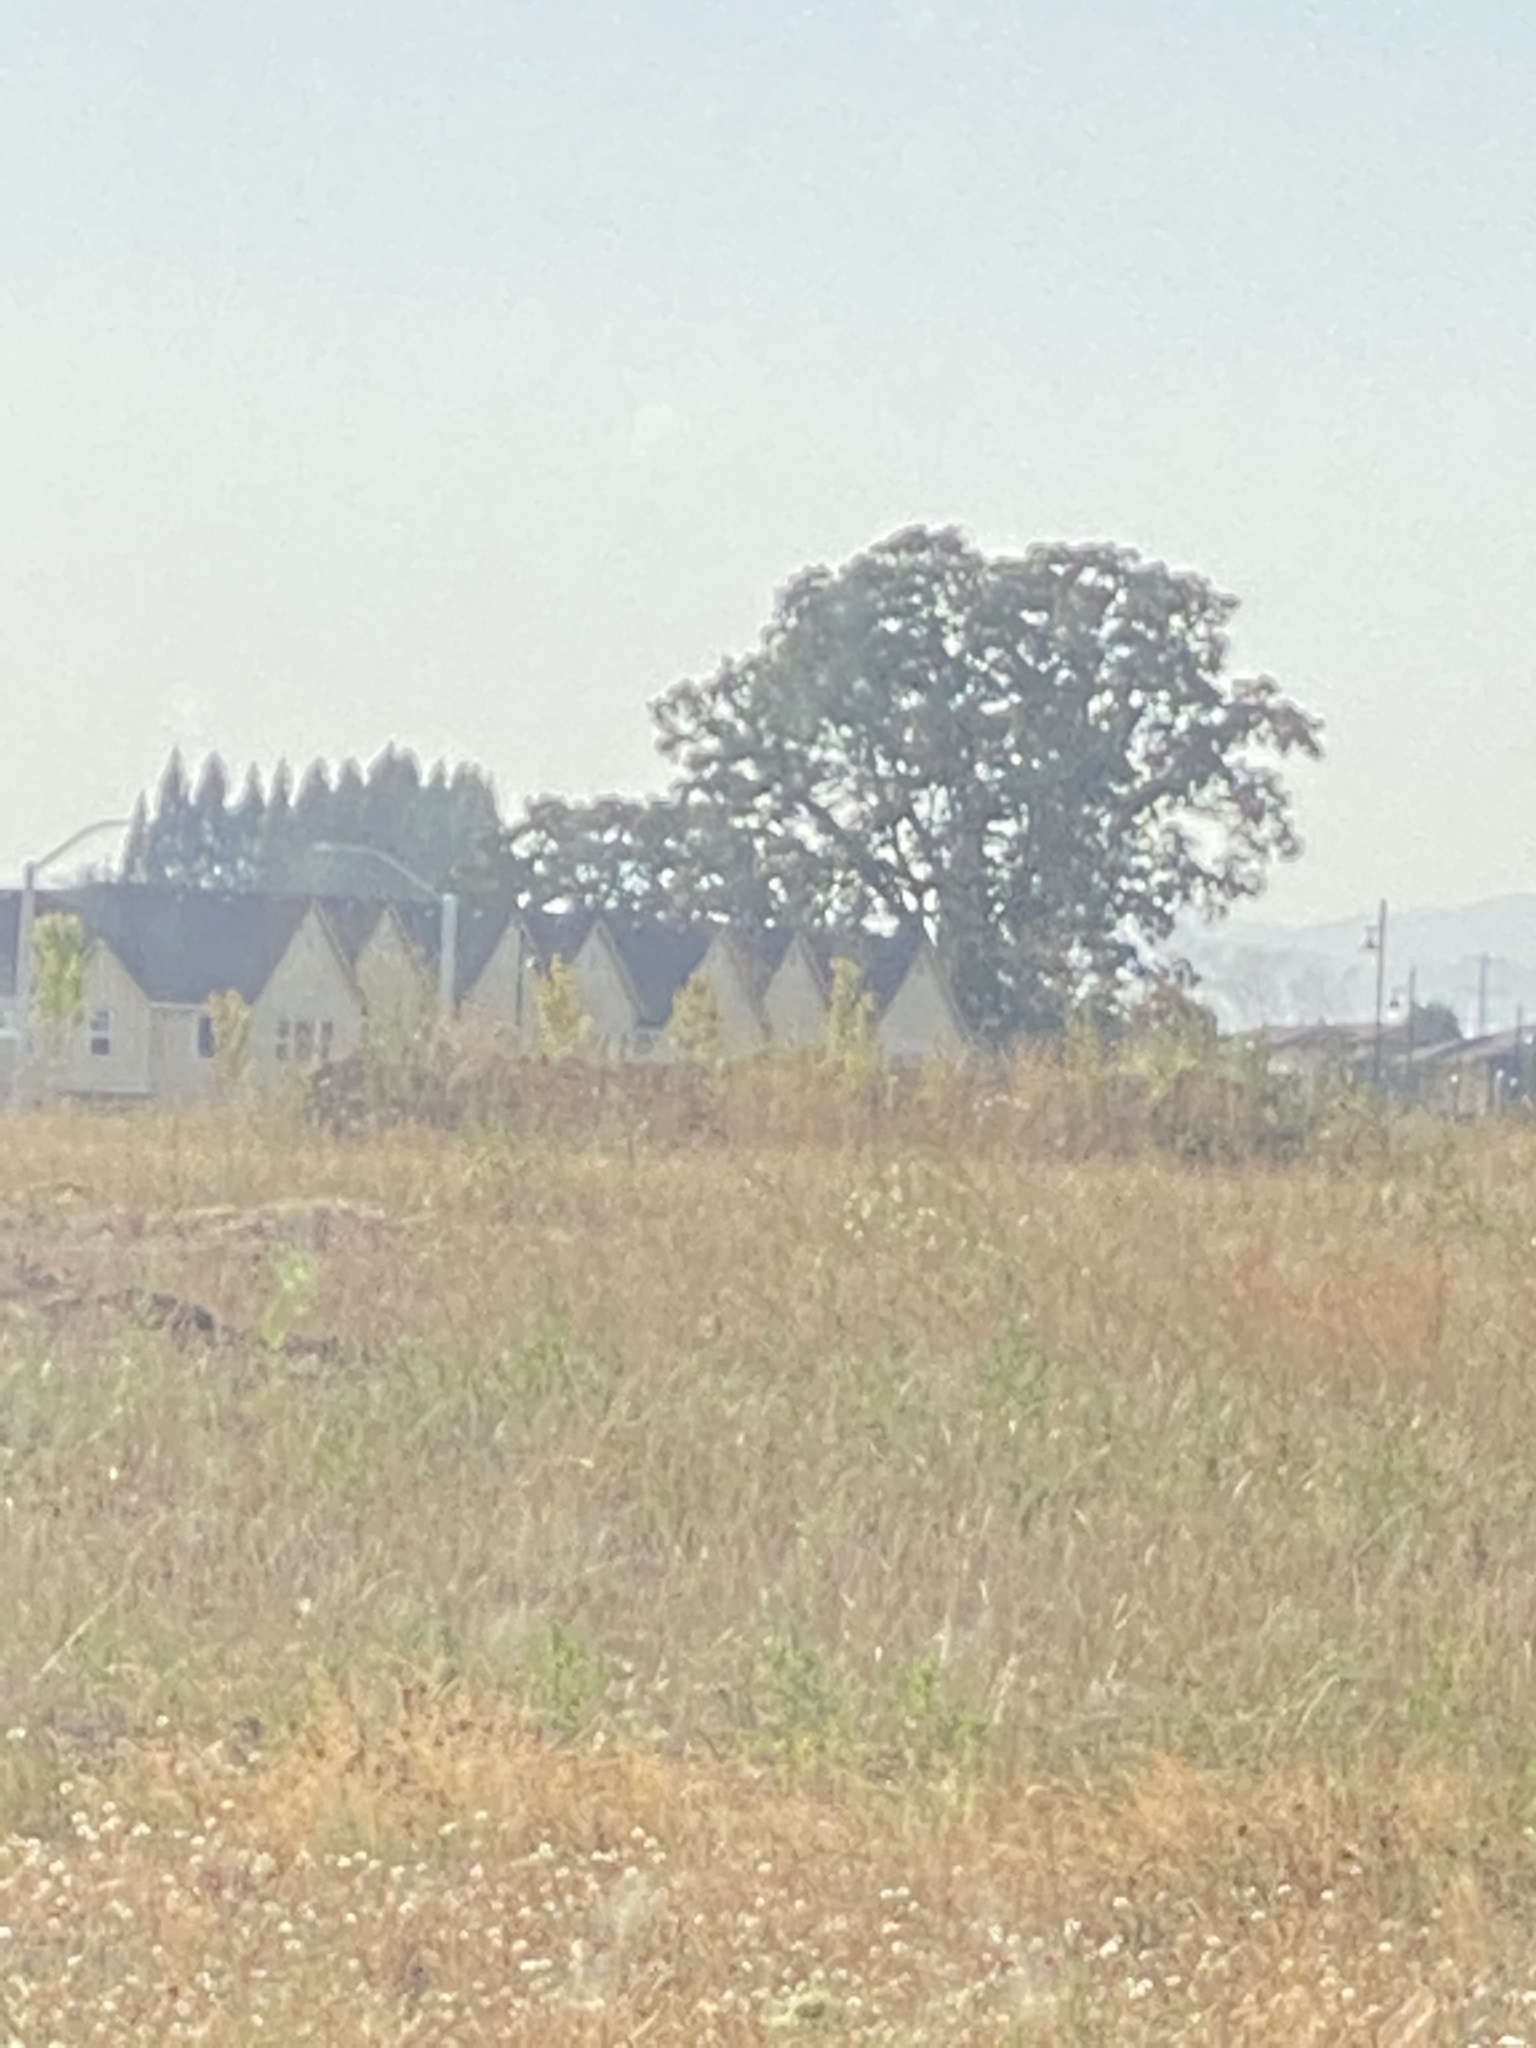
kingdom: Plantae
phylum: Tracheophyta
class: Magnoliopsida
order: Fagales
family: Fagaceae
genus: Quercus
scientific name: Quercus garryana
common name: Garry oak
